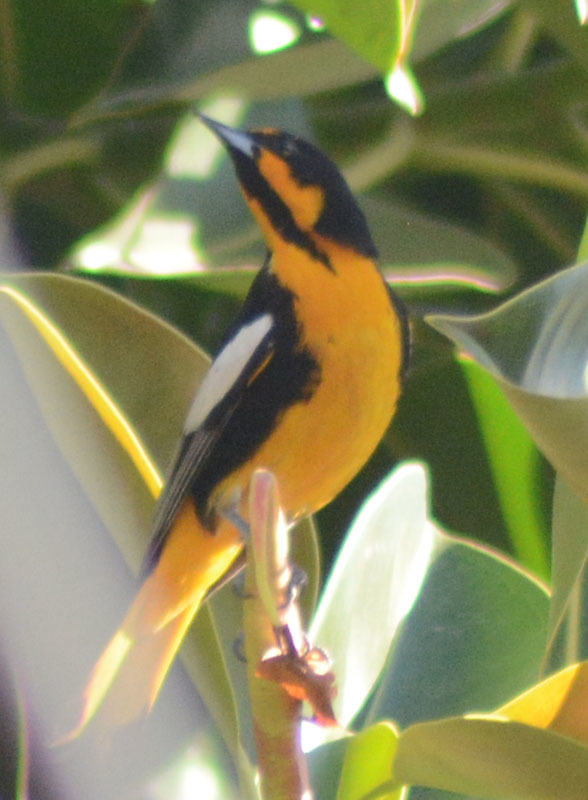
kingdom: Animalia
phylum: Chordata
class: Aves
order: Passeriformes
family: Icteridae
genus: Icterus
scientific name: Icterus abeillei
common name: Black-backed oriole
